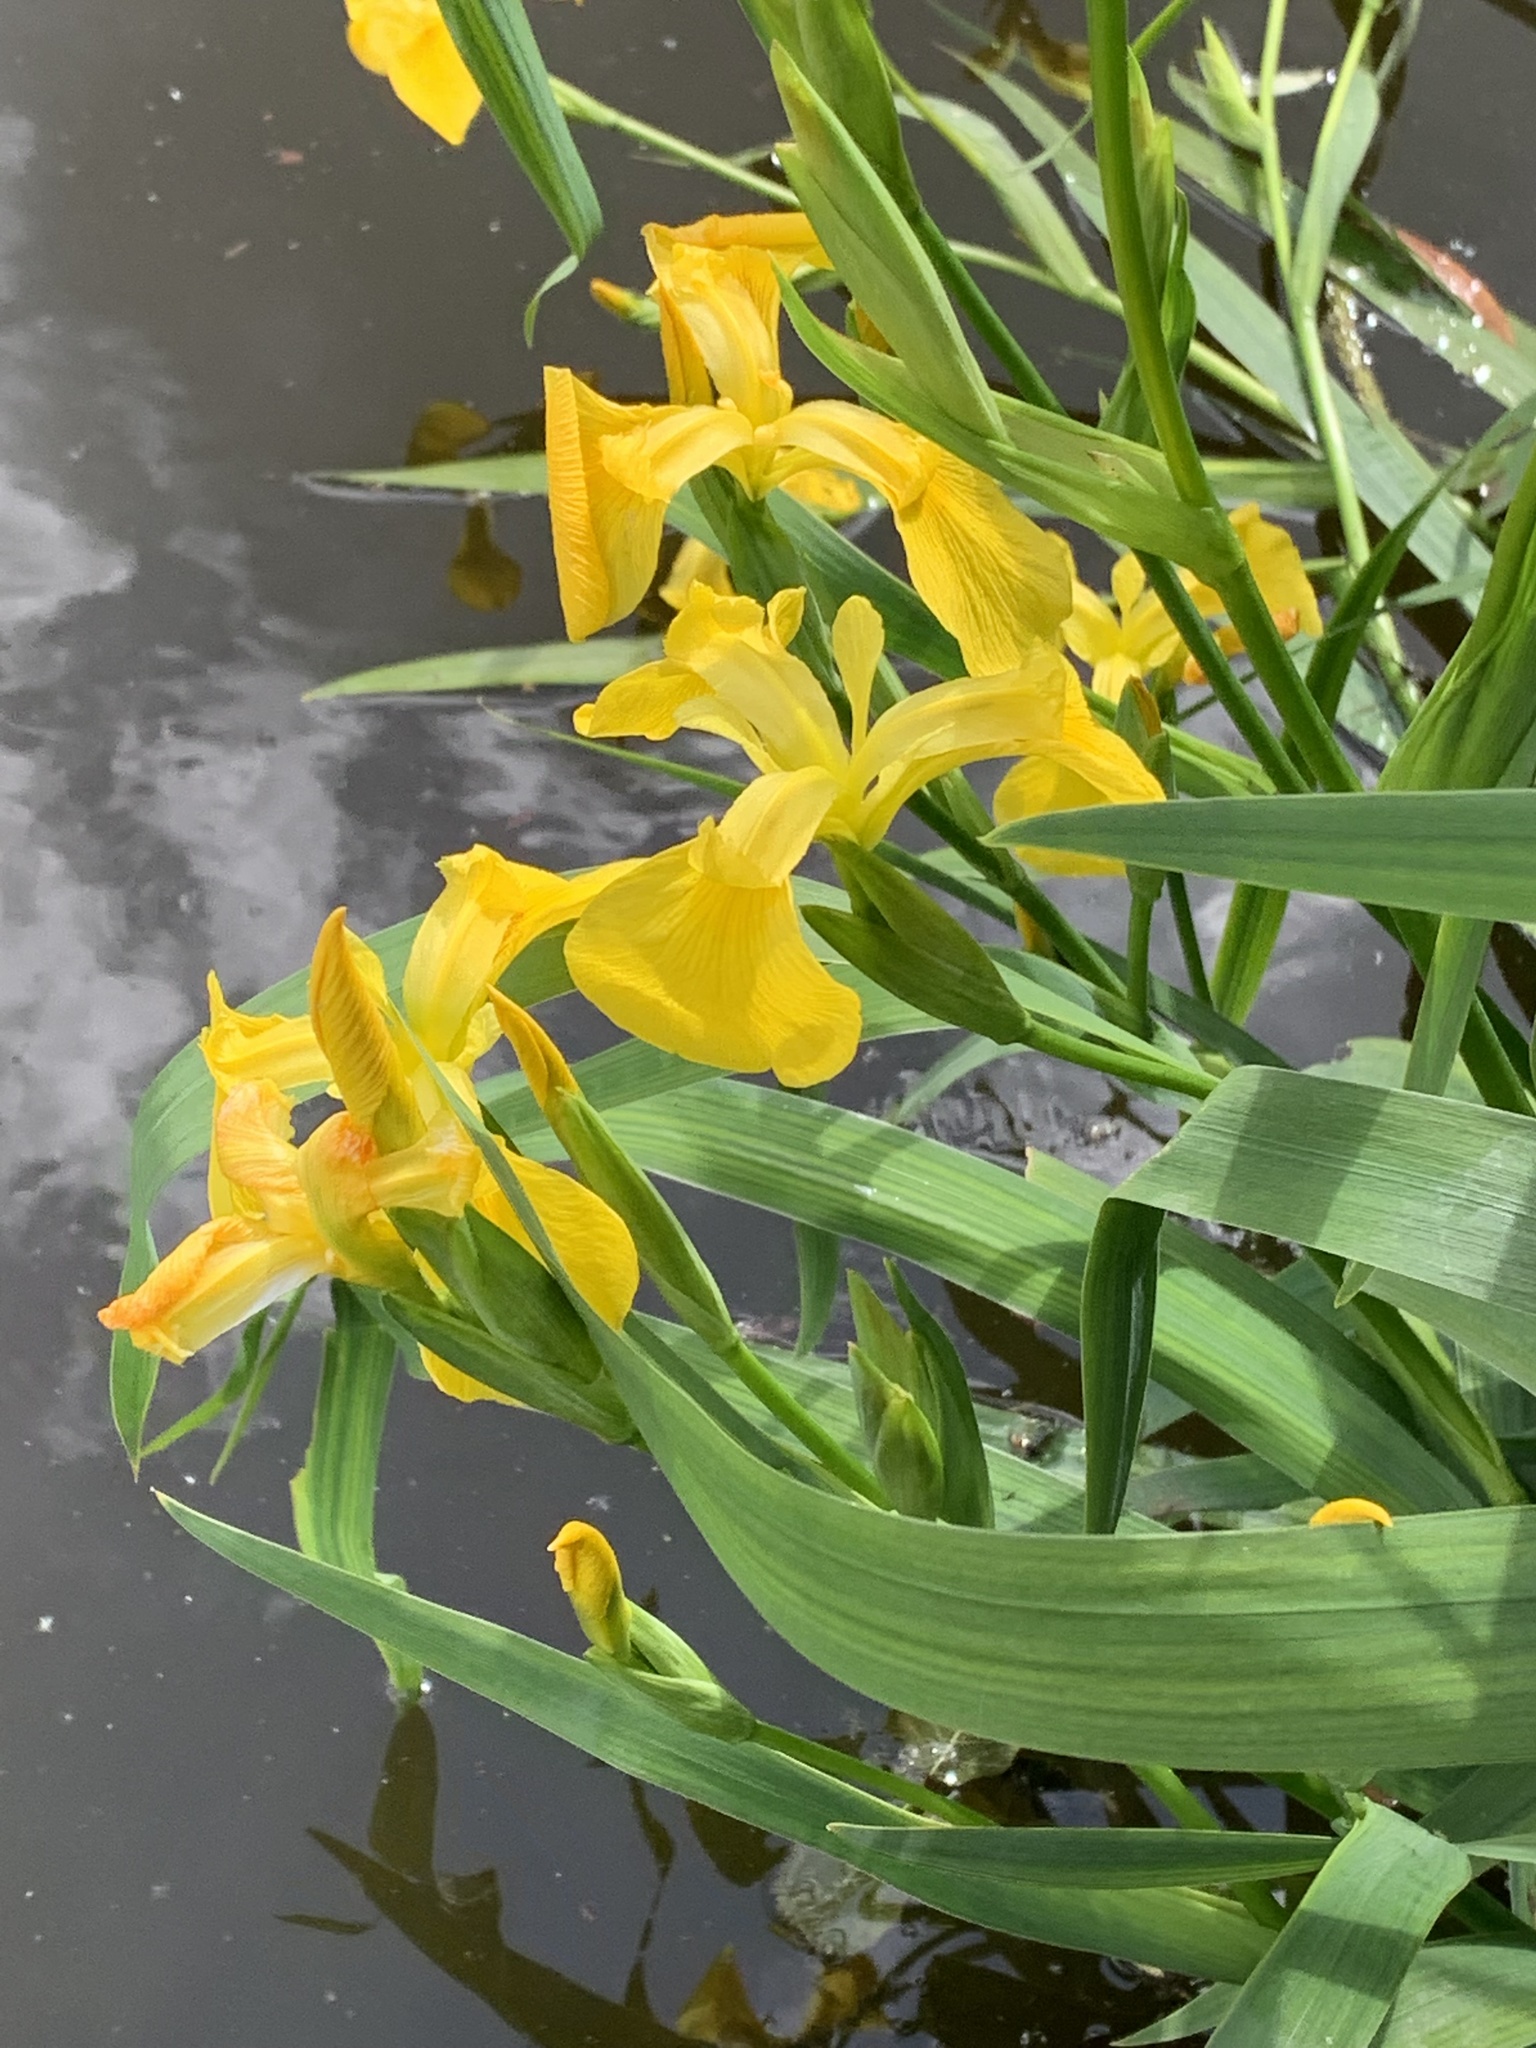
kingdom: Plantae
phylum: Tracheophyta
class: Liliopsida
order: Asparagales
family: Iridaceae
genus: Iris
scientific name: Iris pseudacorus
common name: Yellow flag
